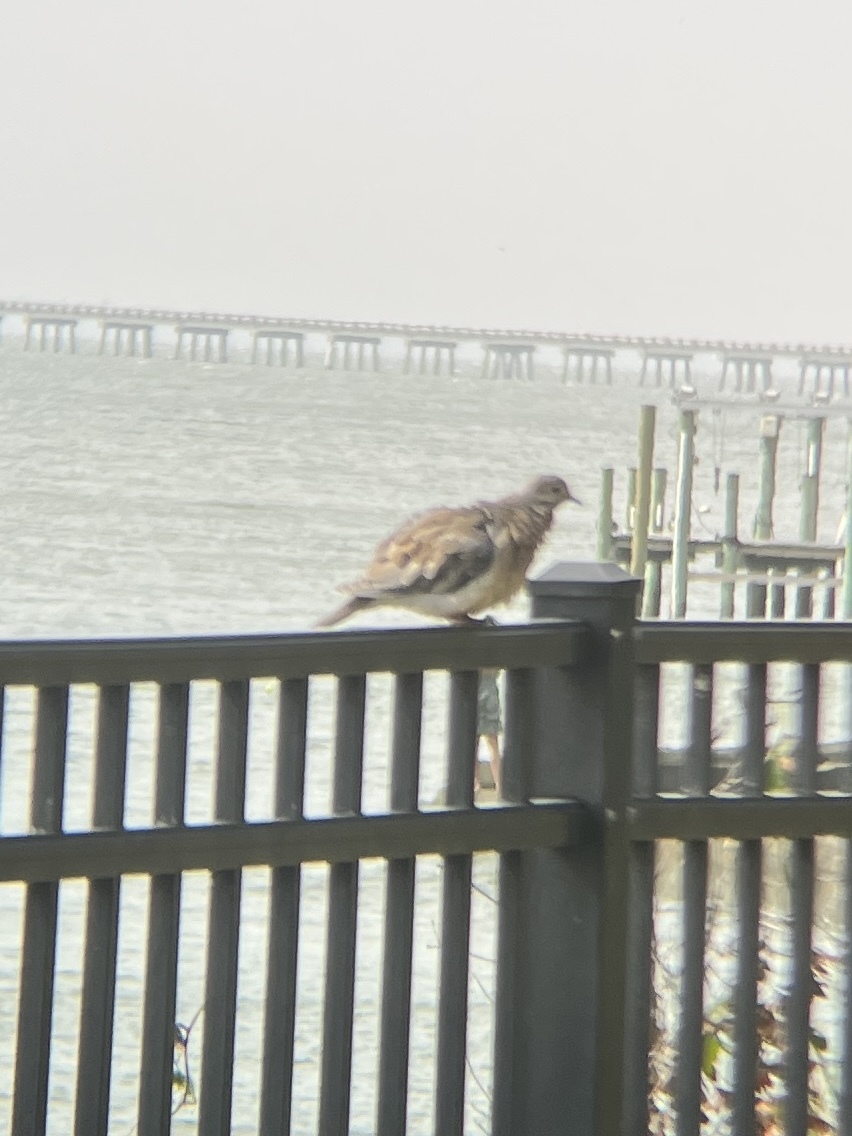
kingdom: Animalia
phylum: Chordata
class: Aves
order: Columbiformes
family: Columbidae
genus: Zenaida
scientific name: Zenaida macroura
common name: Mourning dove
